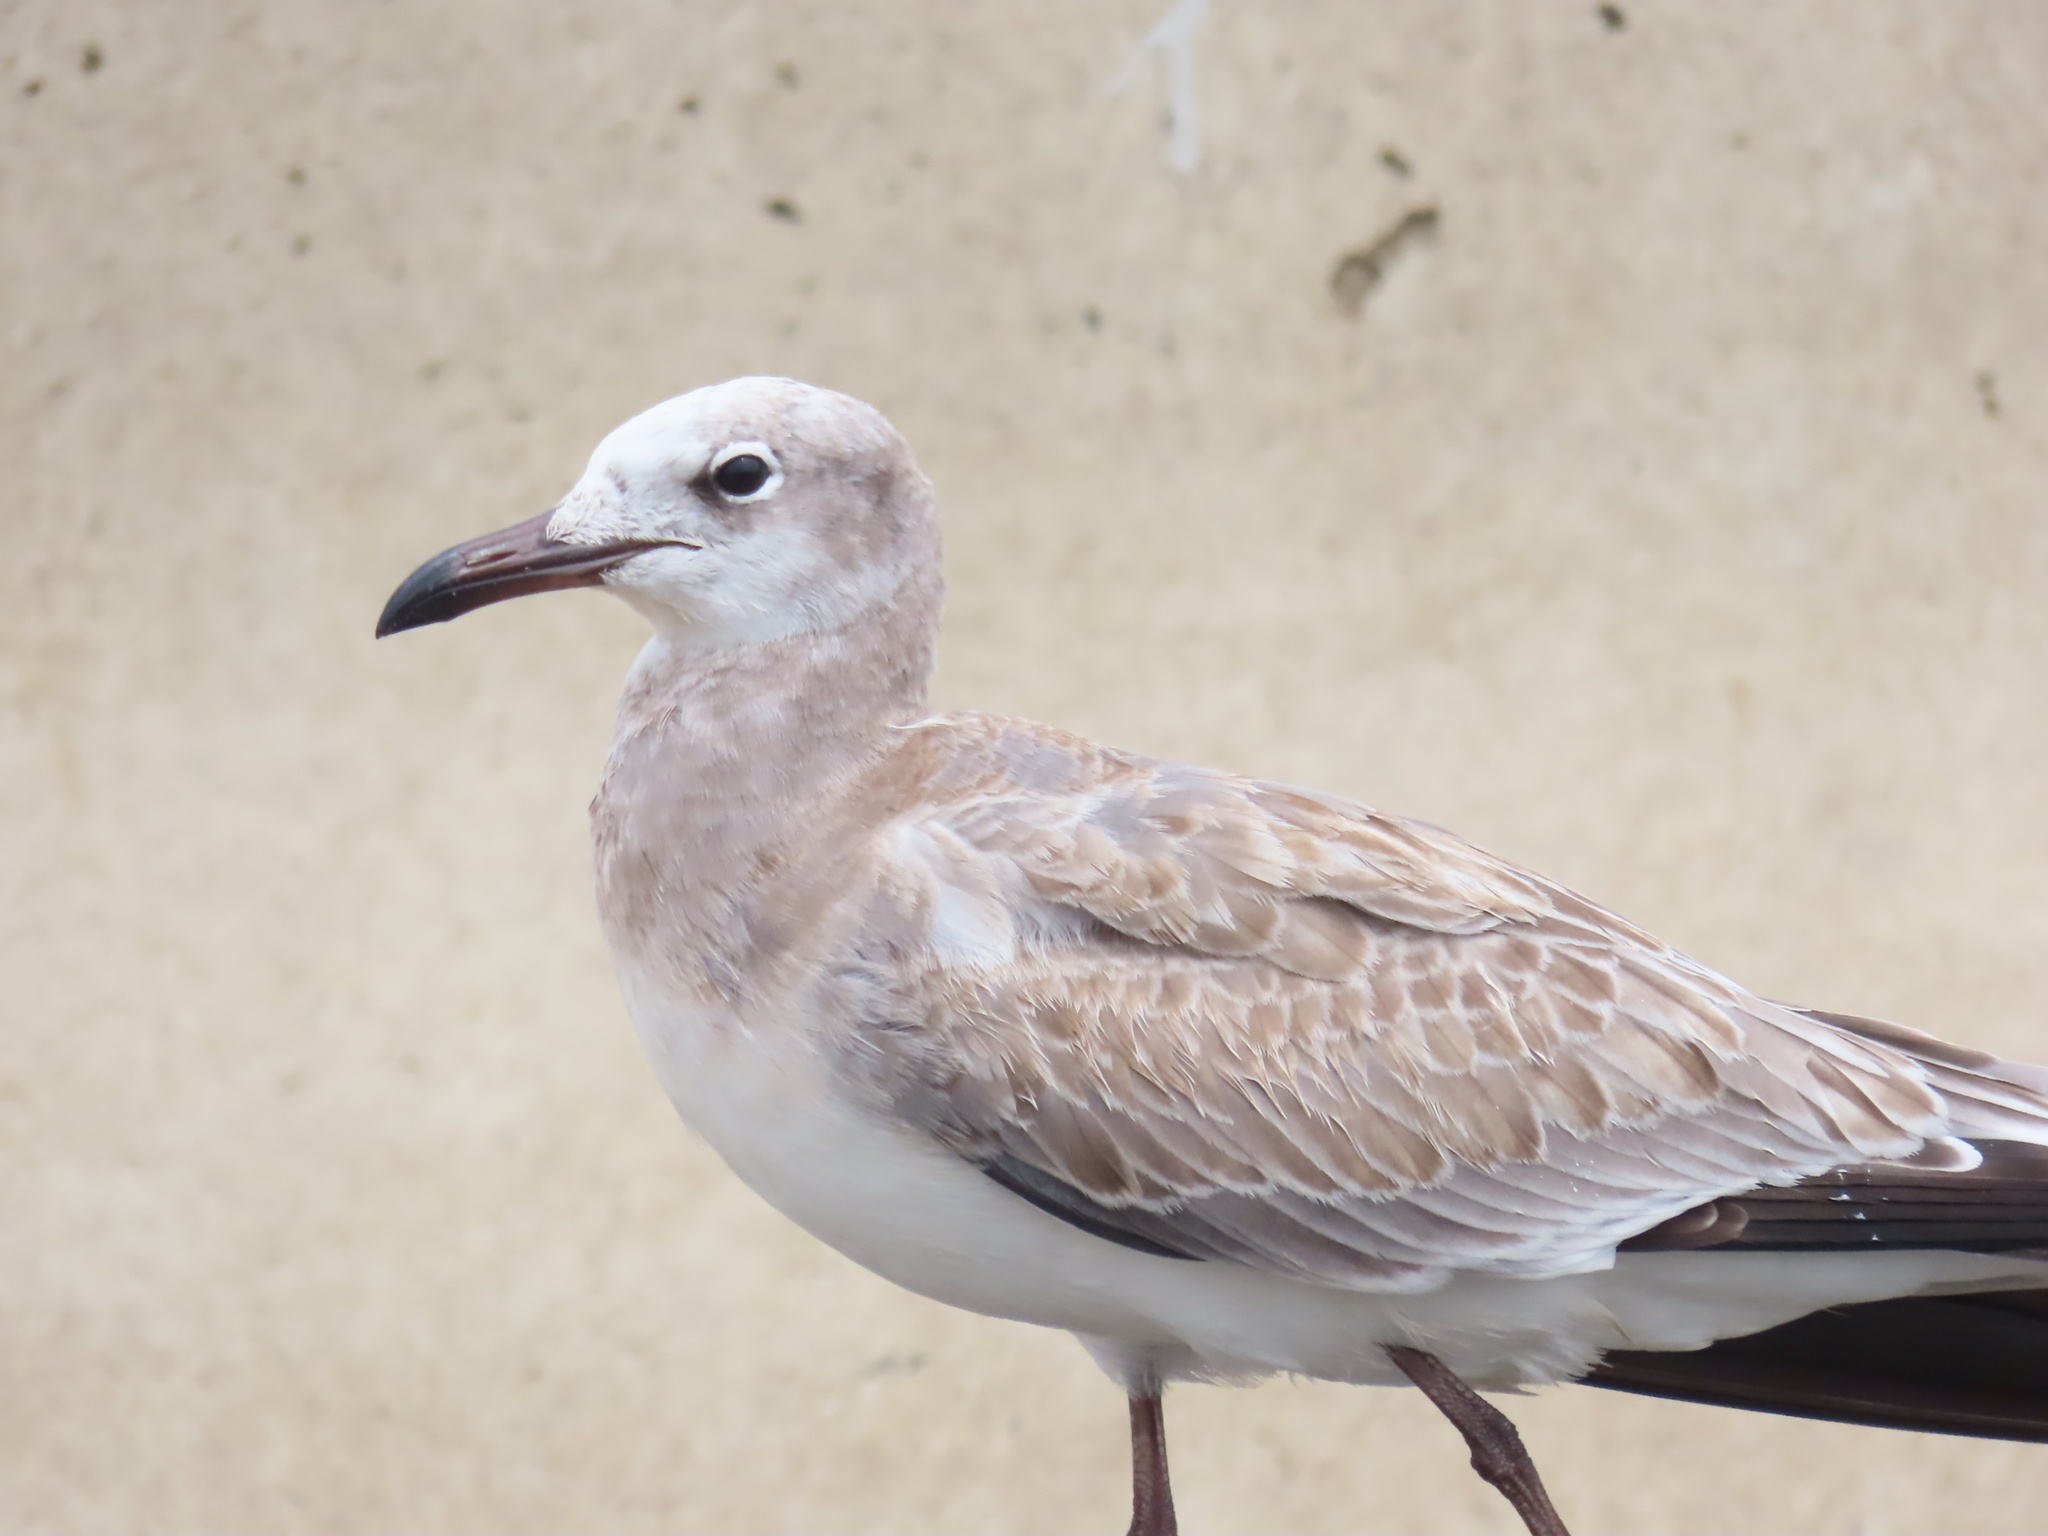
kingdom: Animalia
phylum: Chordata
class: Aves
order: Charadriiformes
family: Laridae
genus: Leucophaeus
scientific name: Leucophaeus atricilla
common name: Laughing gull
